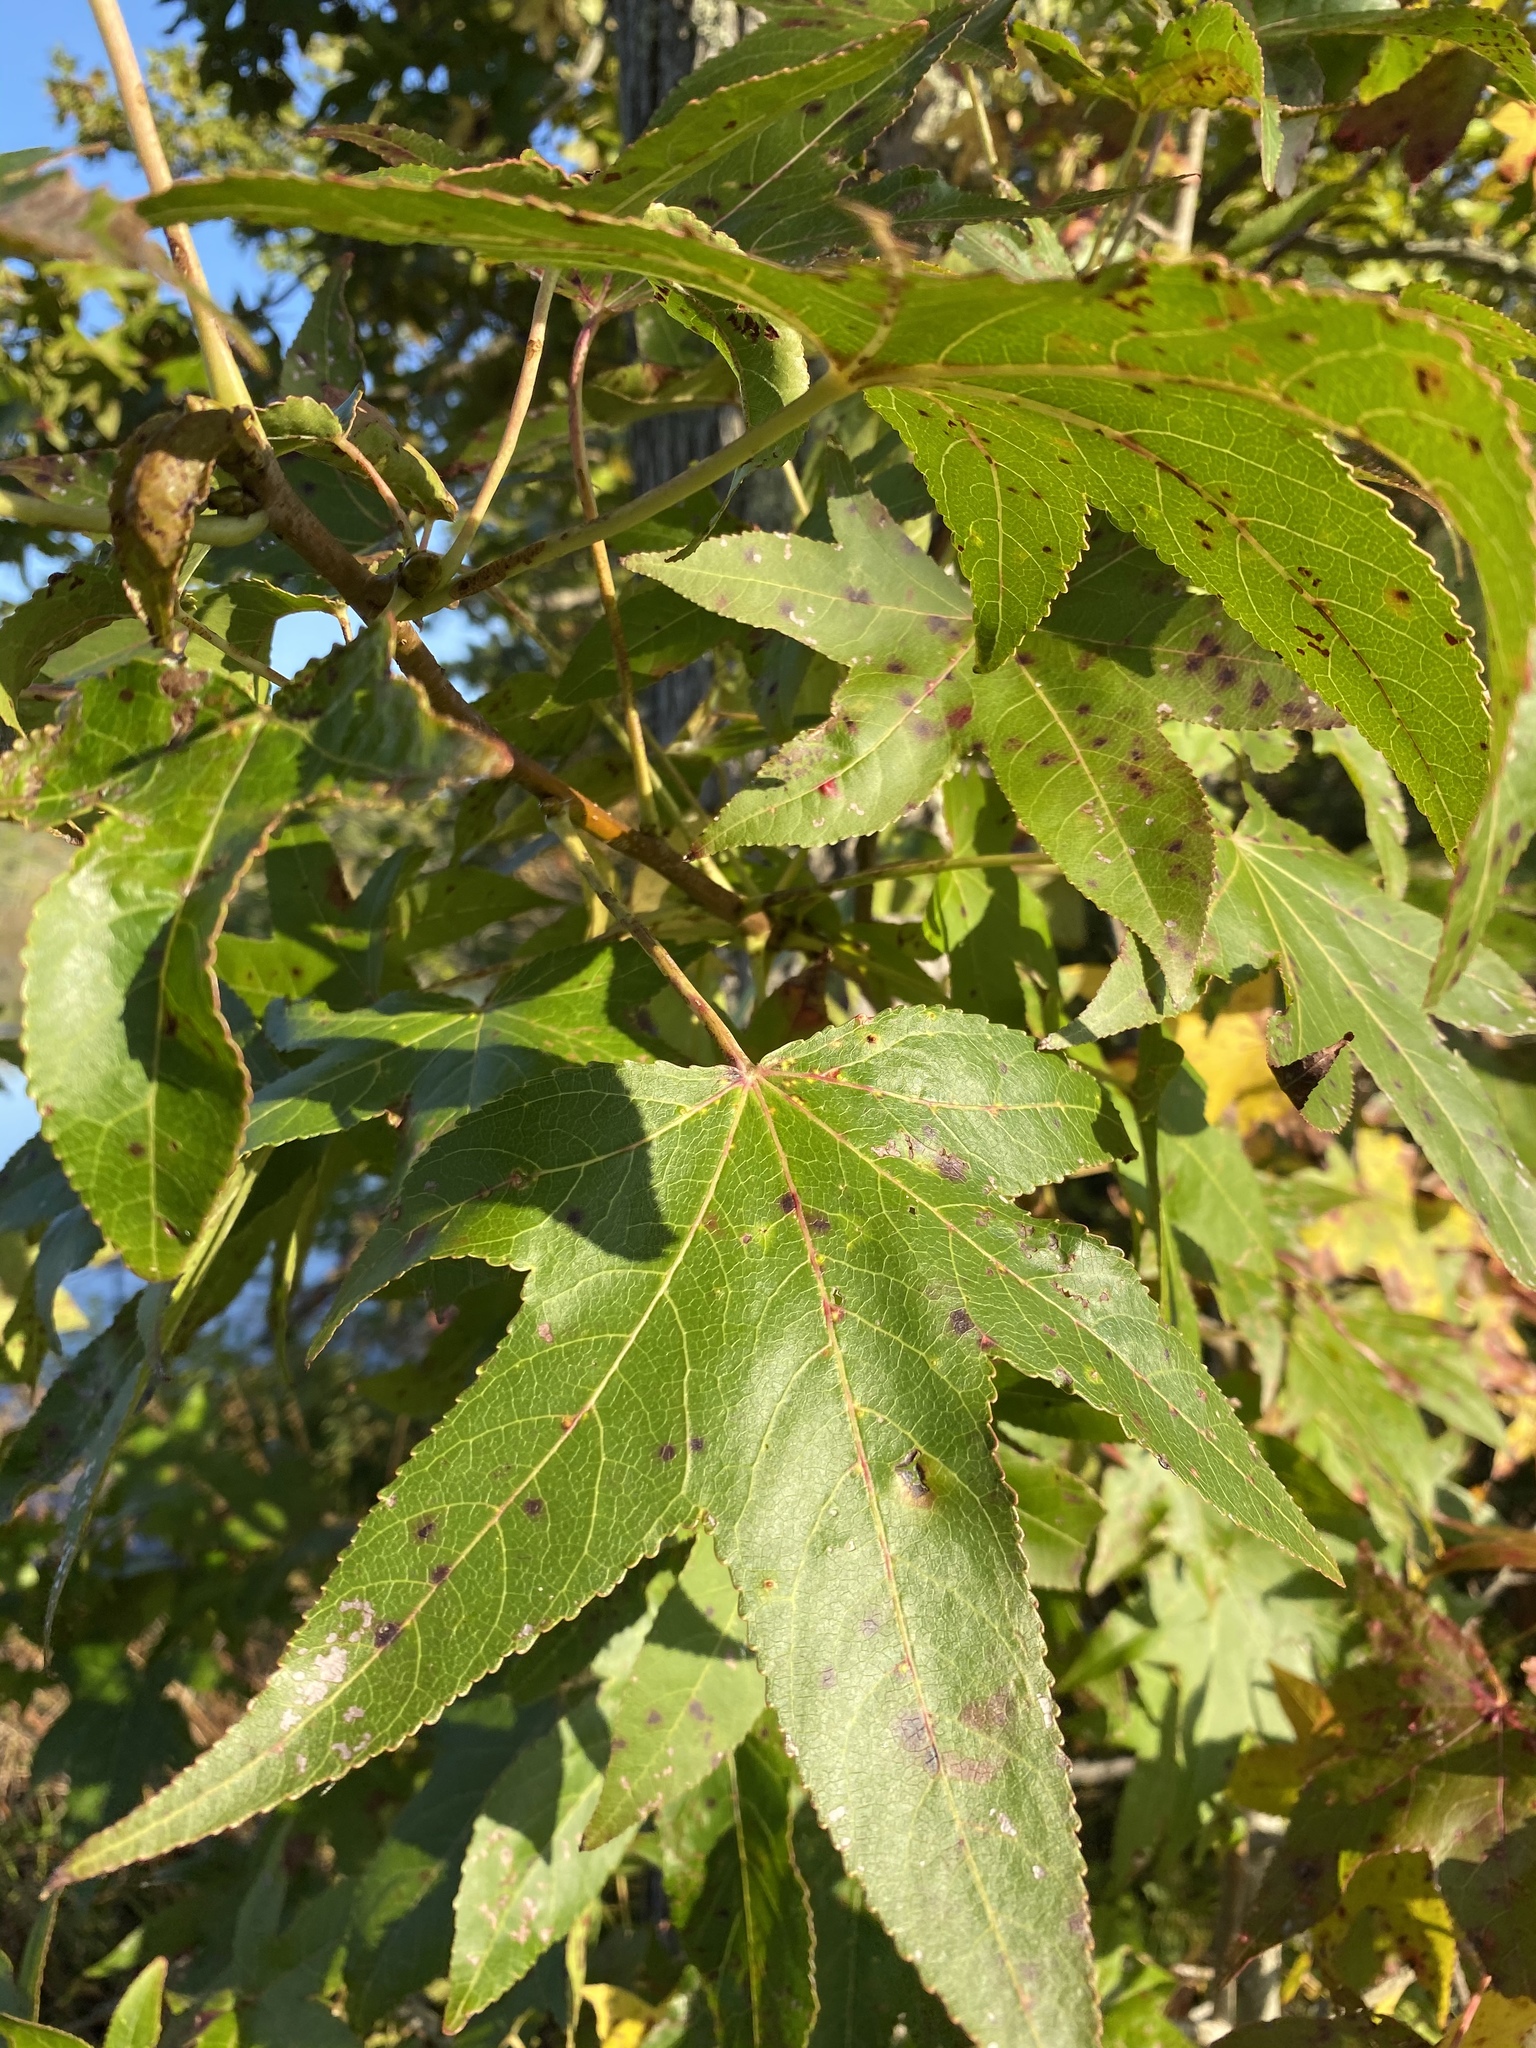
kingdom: Plantae
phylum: Tracheophyta
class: Magnoliopsida
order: Saxifragales
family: Altingiaceae
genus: Liquidambar
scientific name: Liquidambar styraciflua
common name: Sweet gum
